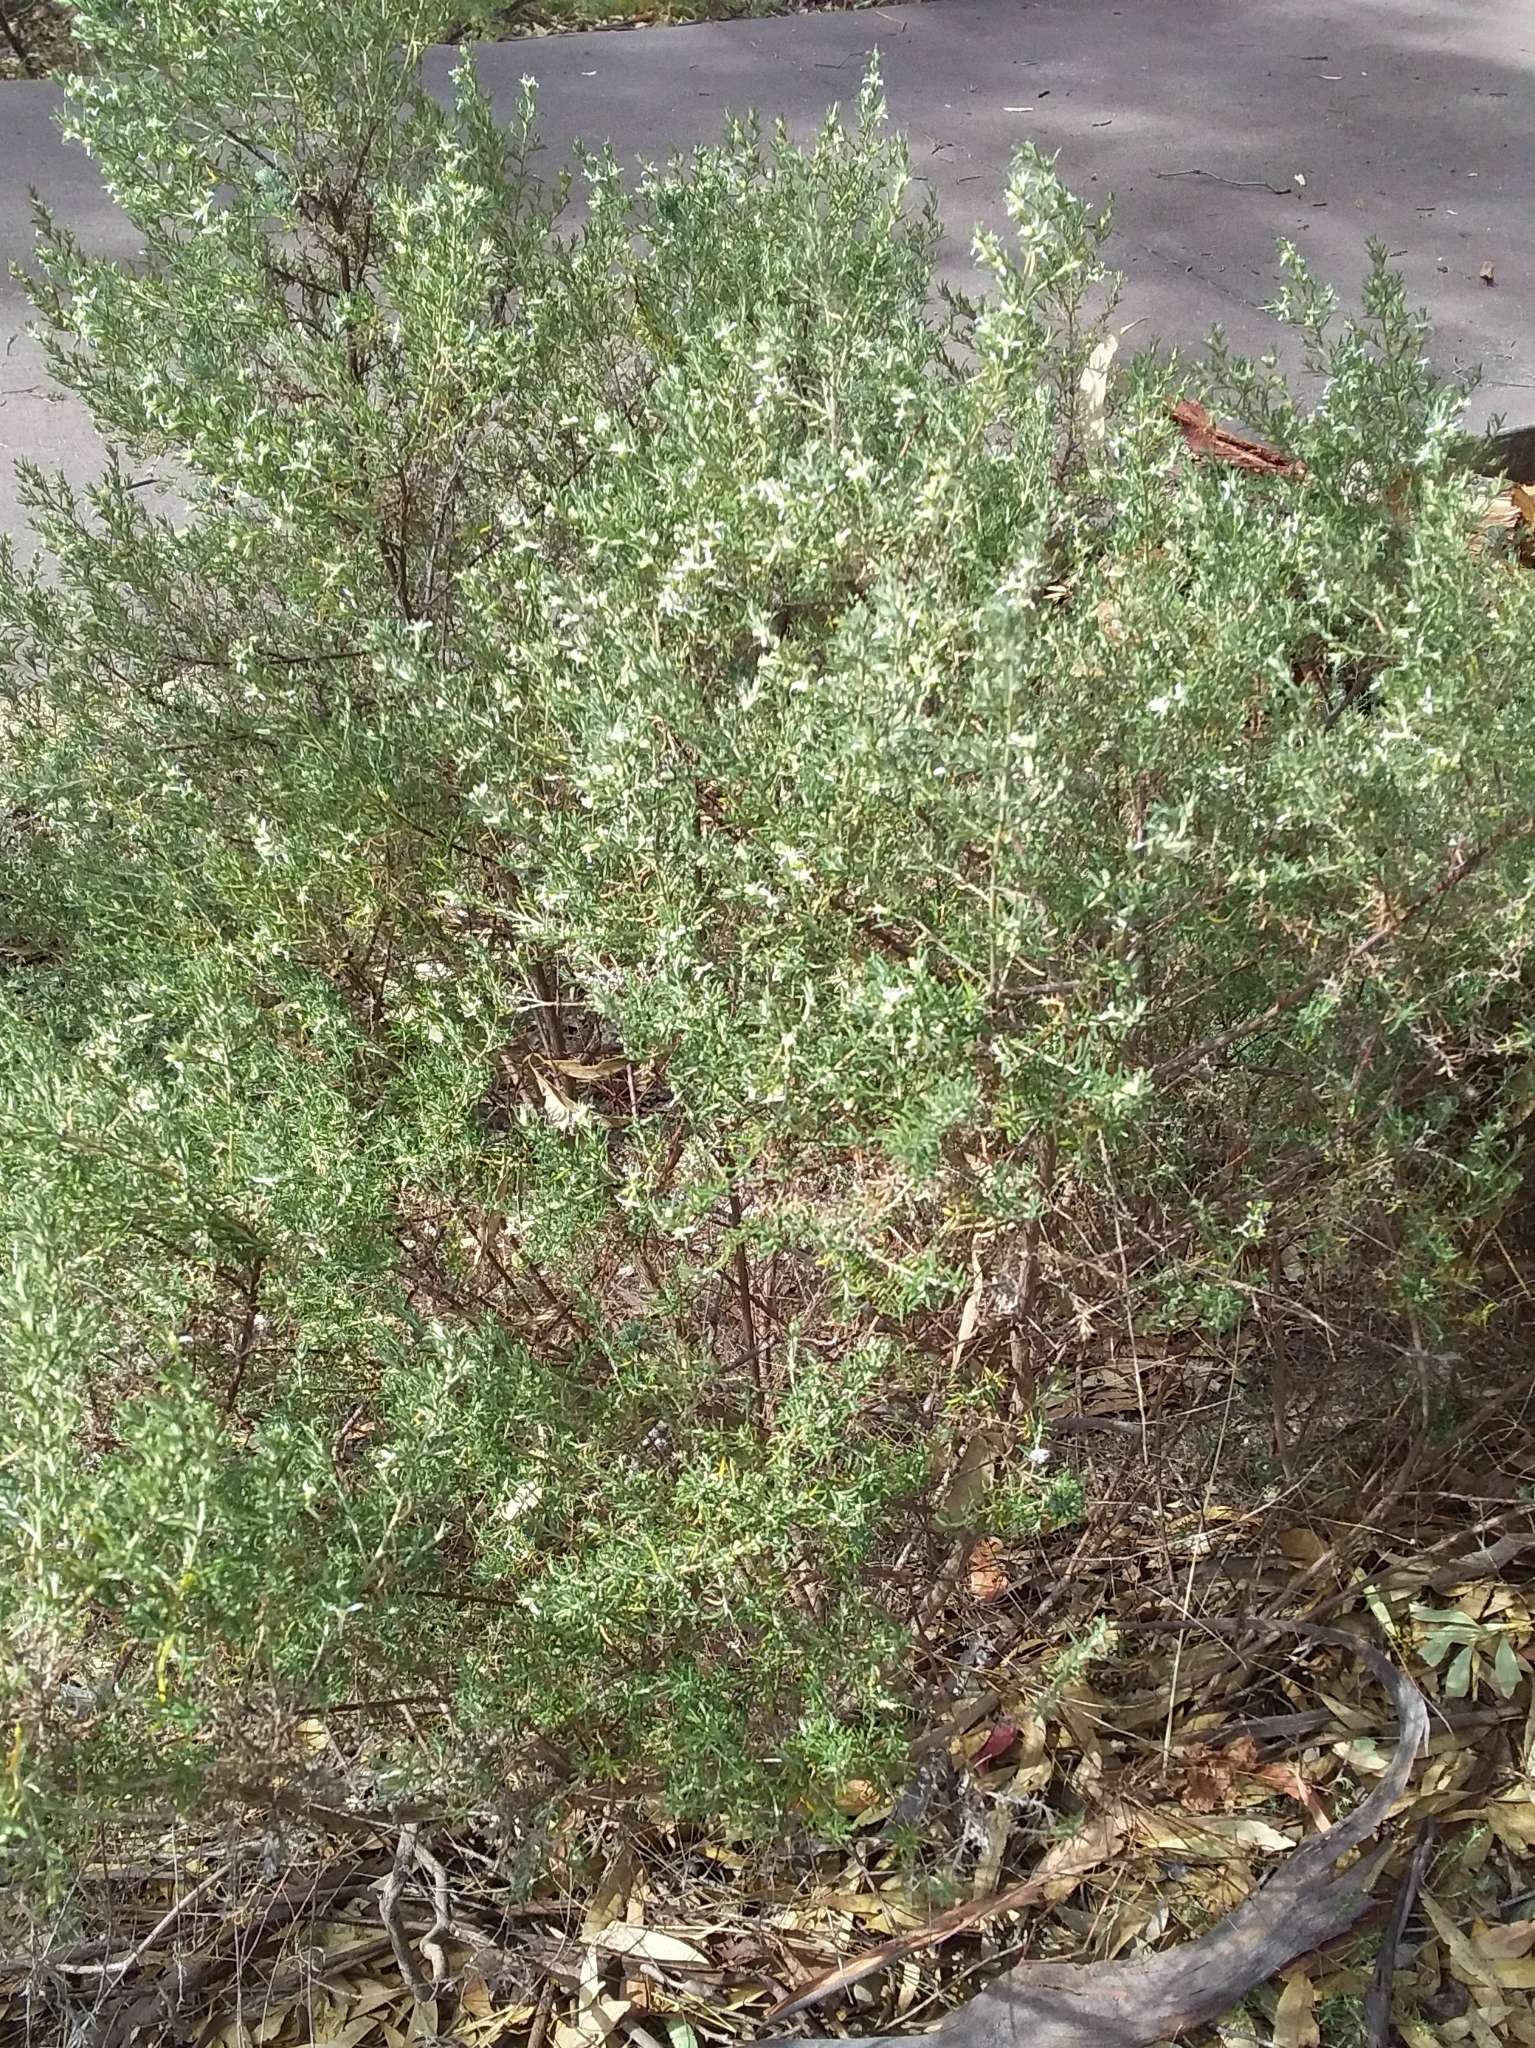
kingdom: Plantae
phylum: Tracheophyta
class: Magnoliopsida
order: Asterales
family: Asteraceae
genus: Olearia
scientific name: Olearia ramulosa
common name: Twiggy daisybush
